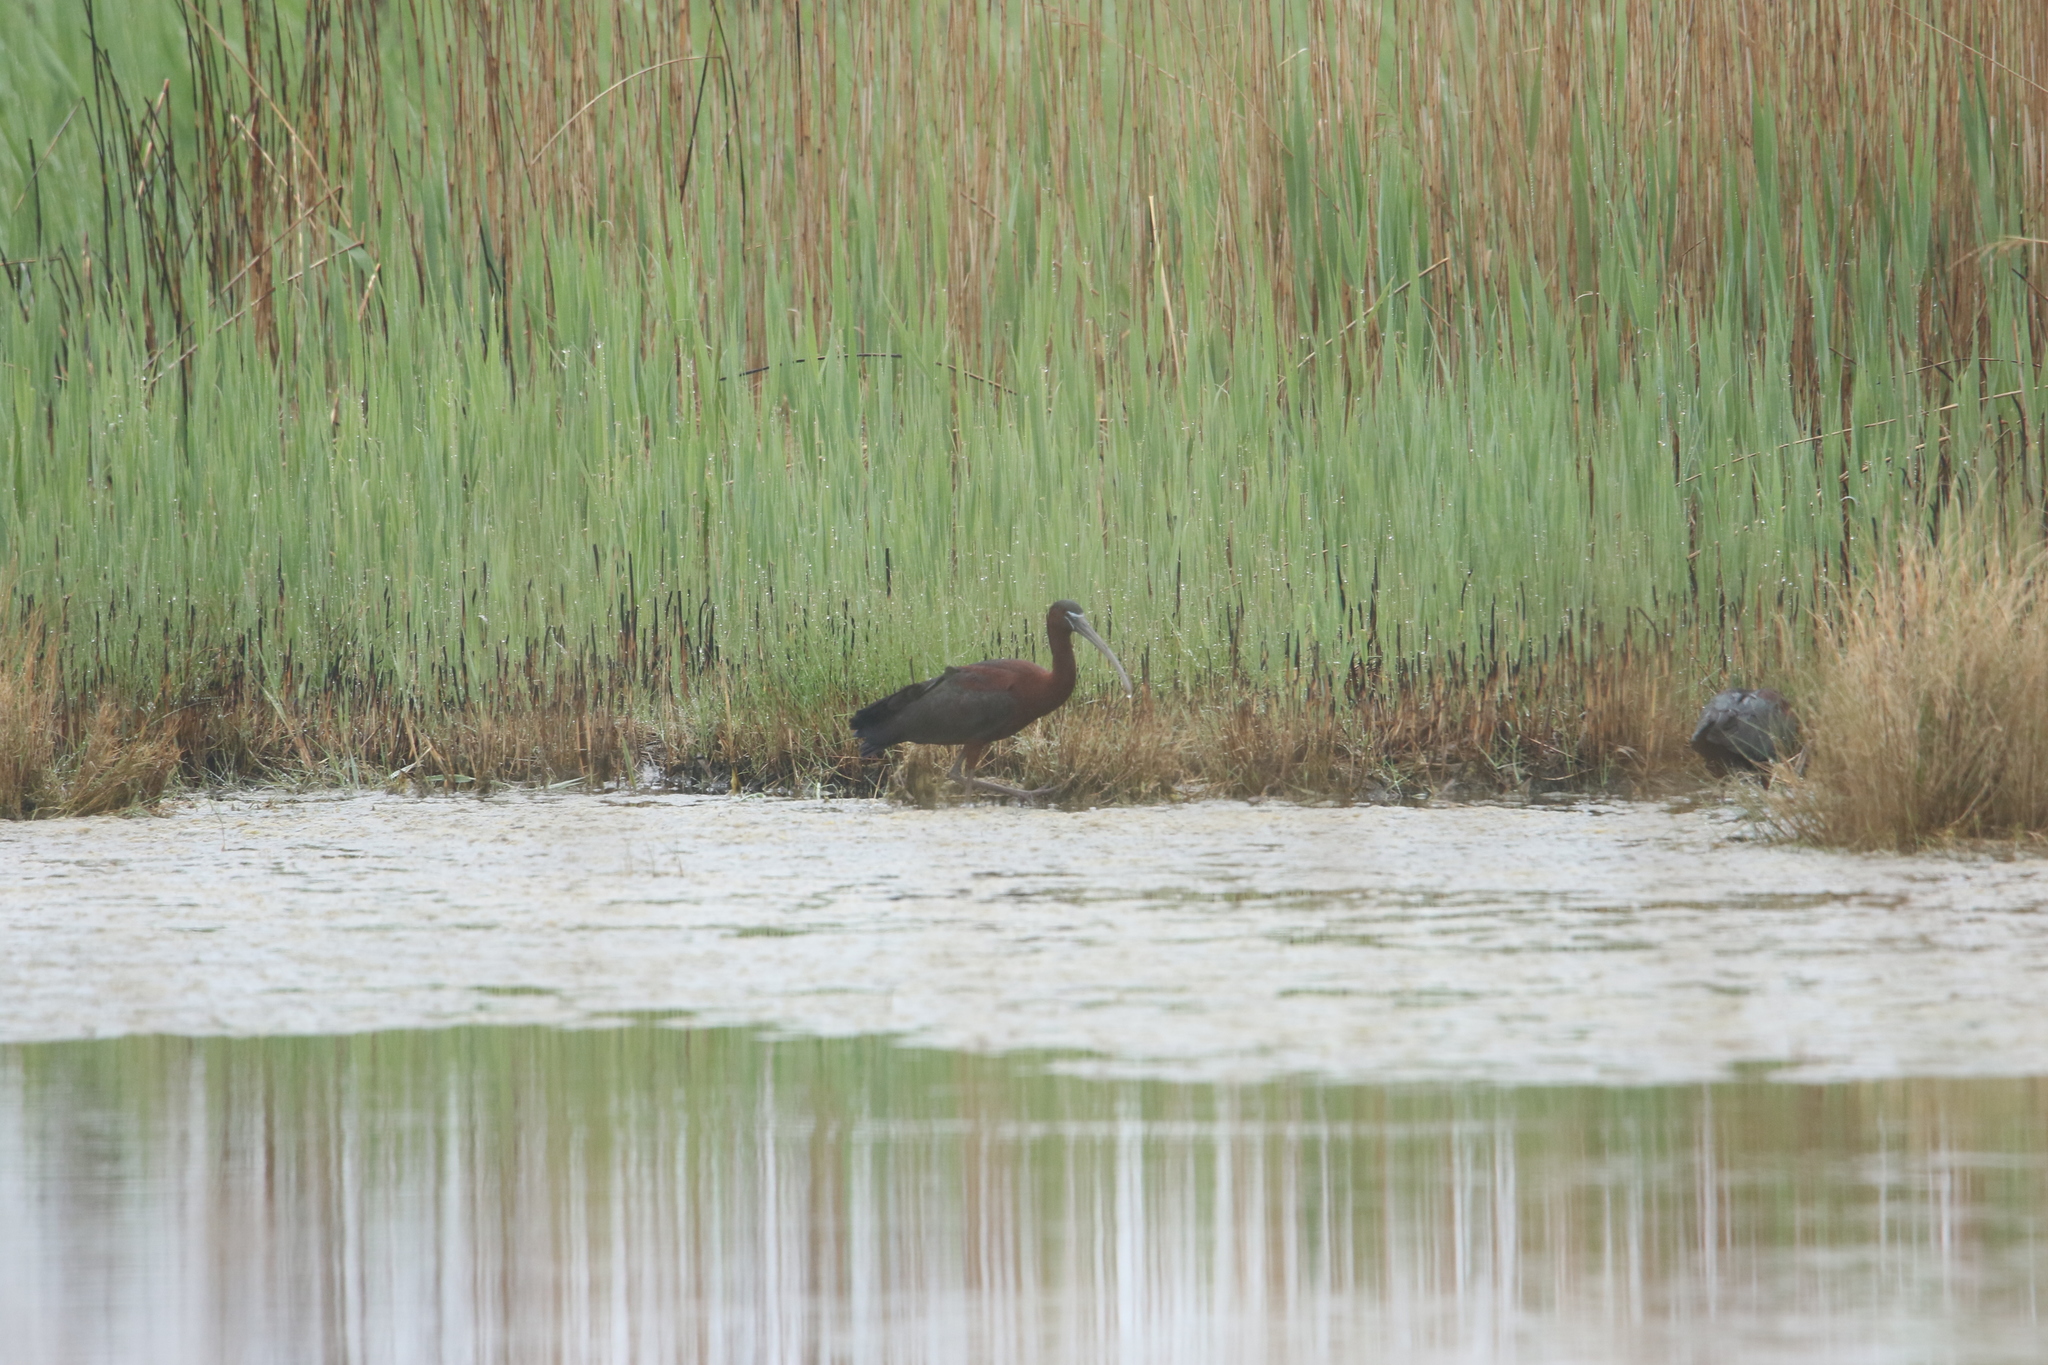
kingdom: Animalia
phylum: Chordata
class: Aves
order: Pelecaniformes
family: Threskiornithidae
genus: Plegadis
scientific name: Plegadis falcinellus
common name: Glossy ibis
